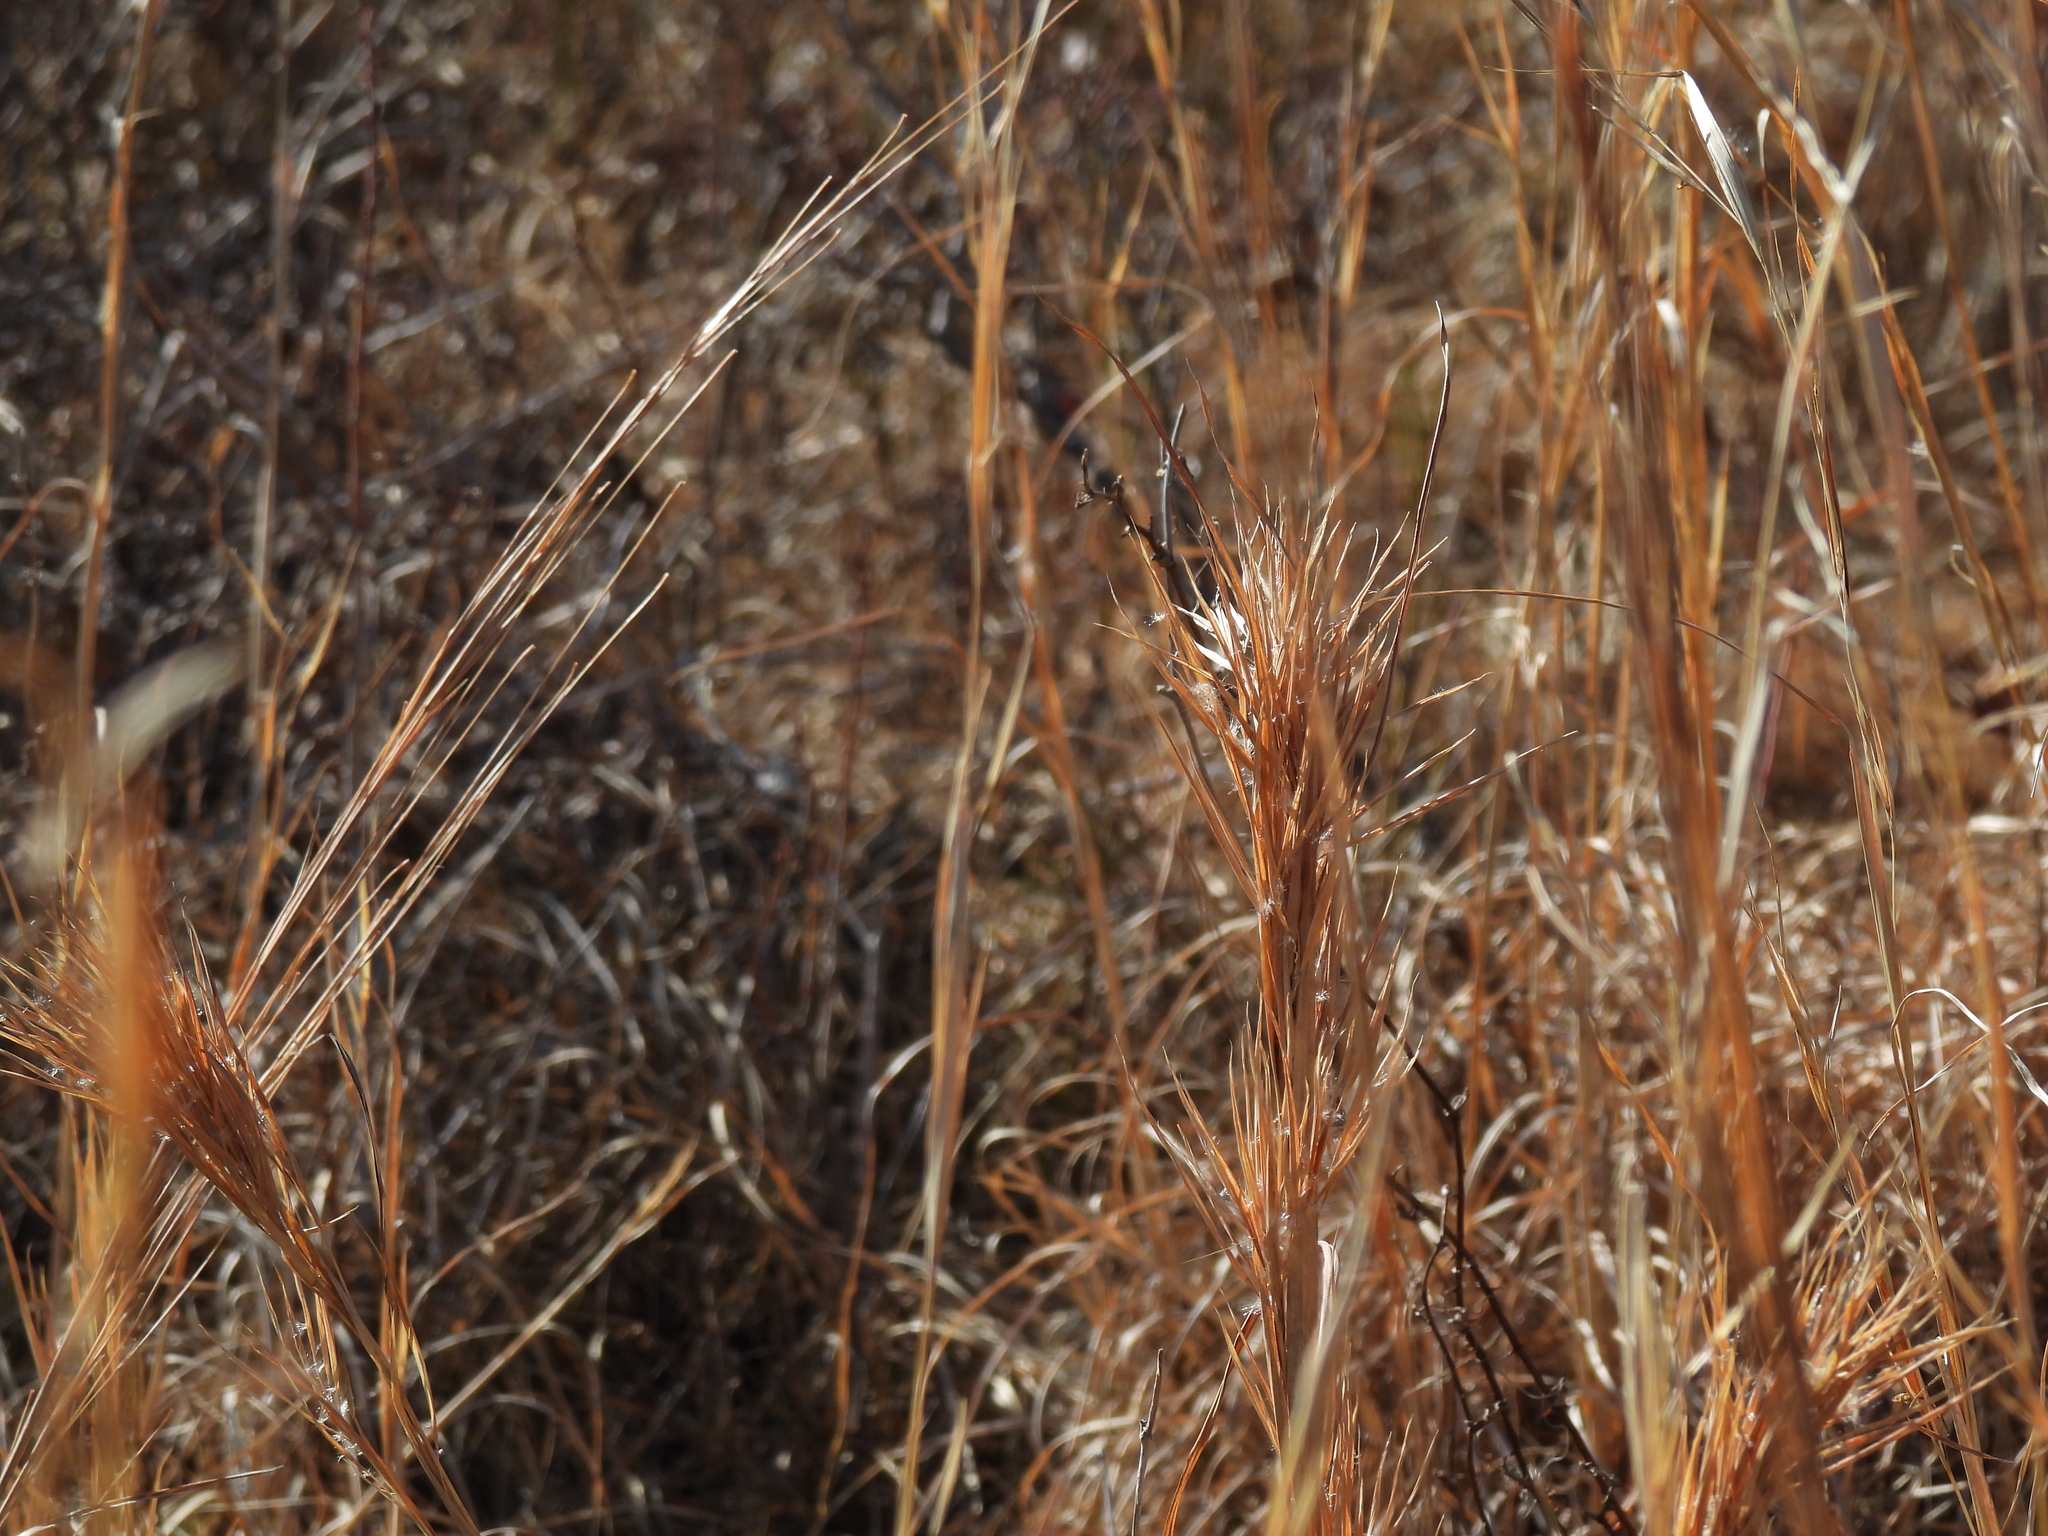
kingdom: Plantae
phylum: Tracheophyta
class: Liliopsida
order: Poales
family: Poaceae
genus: Andropogon
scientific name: Andropogon glomeratus
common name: Bushy beard grass
